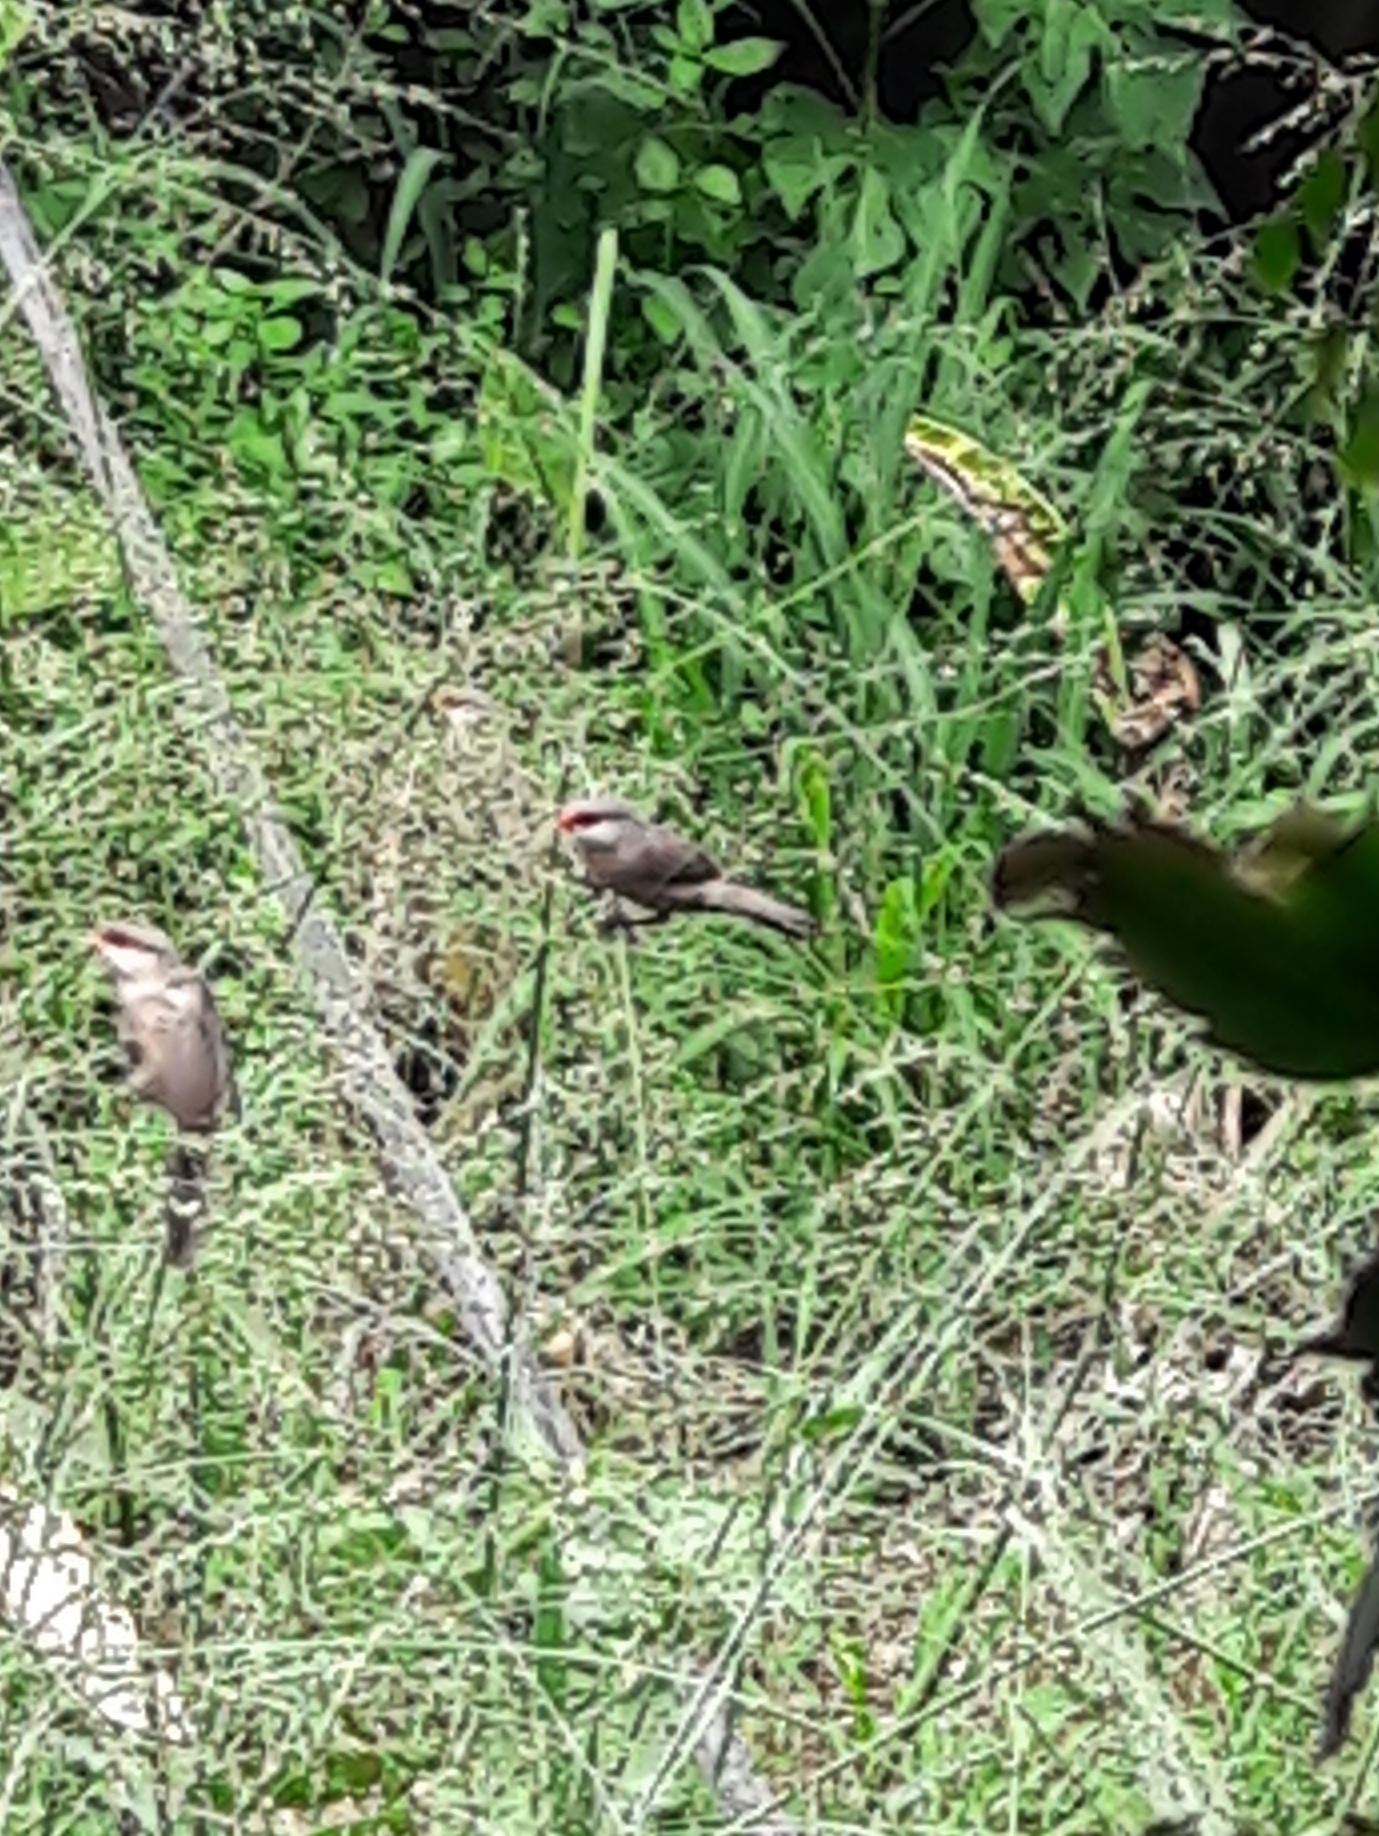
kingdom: Animalia
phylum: Chordata
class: Aves
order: Passeriformes
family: Estrildidae
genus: Estrilda
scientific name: Estrilda astrild
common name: Common waxbill
